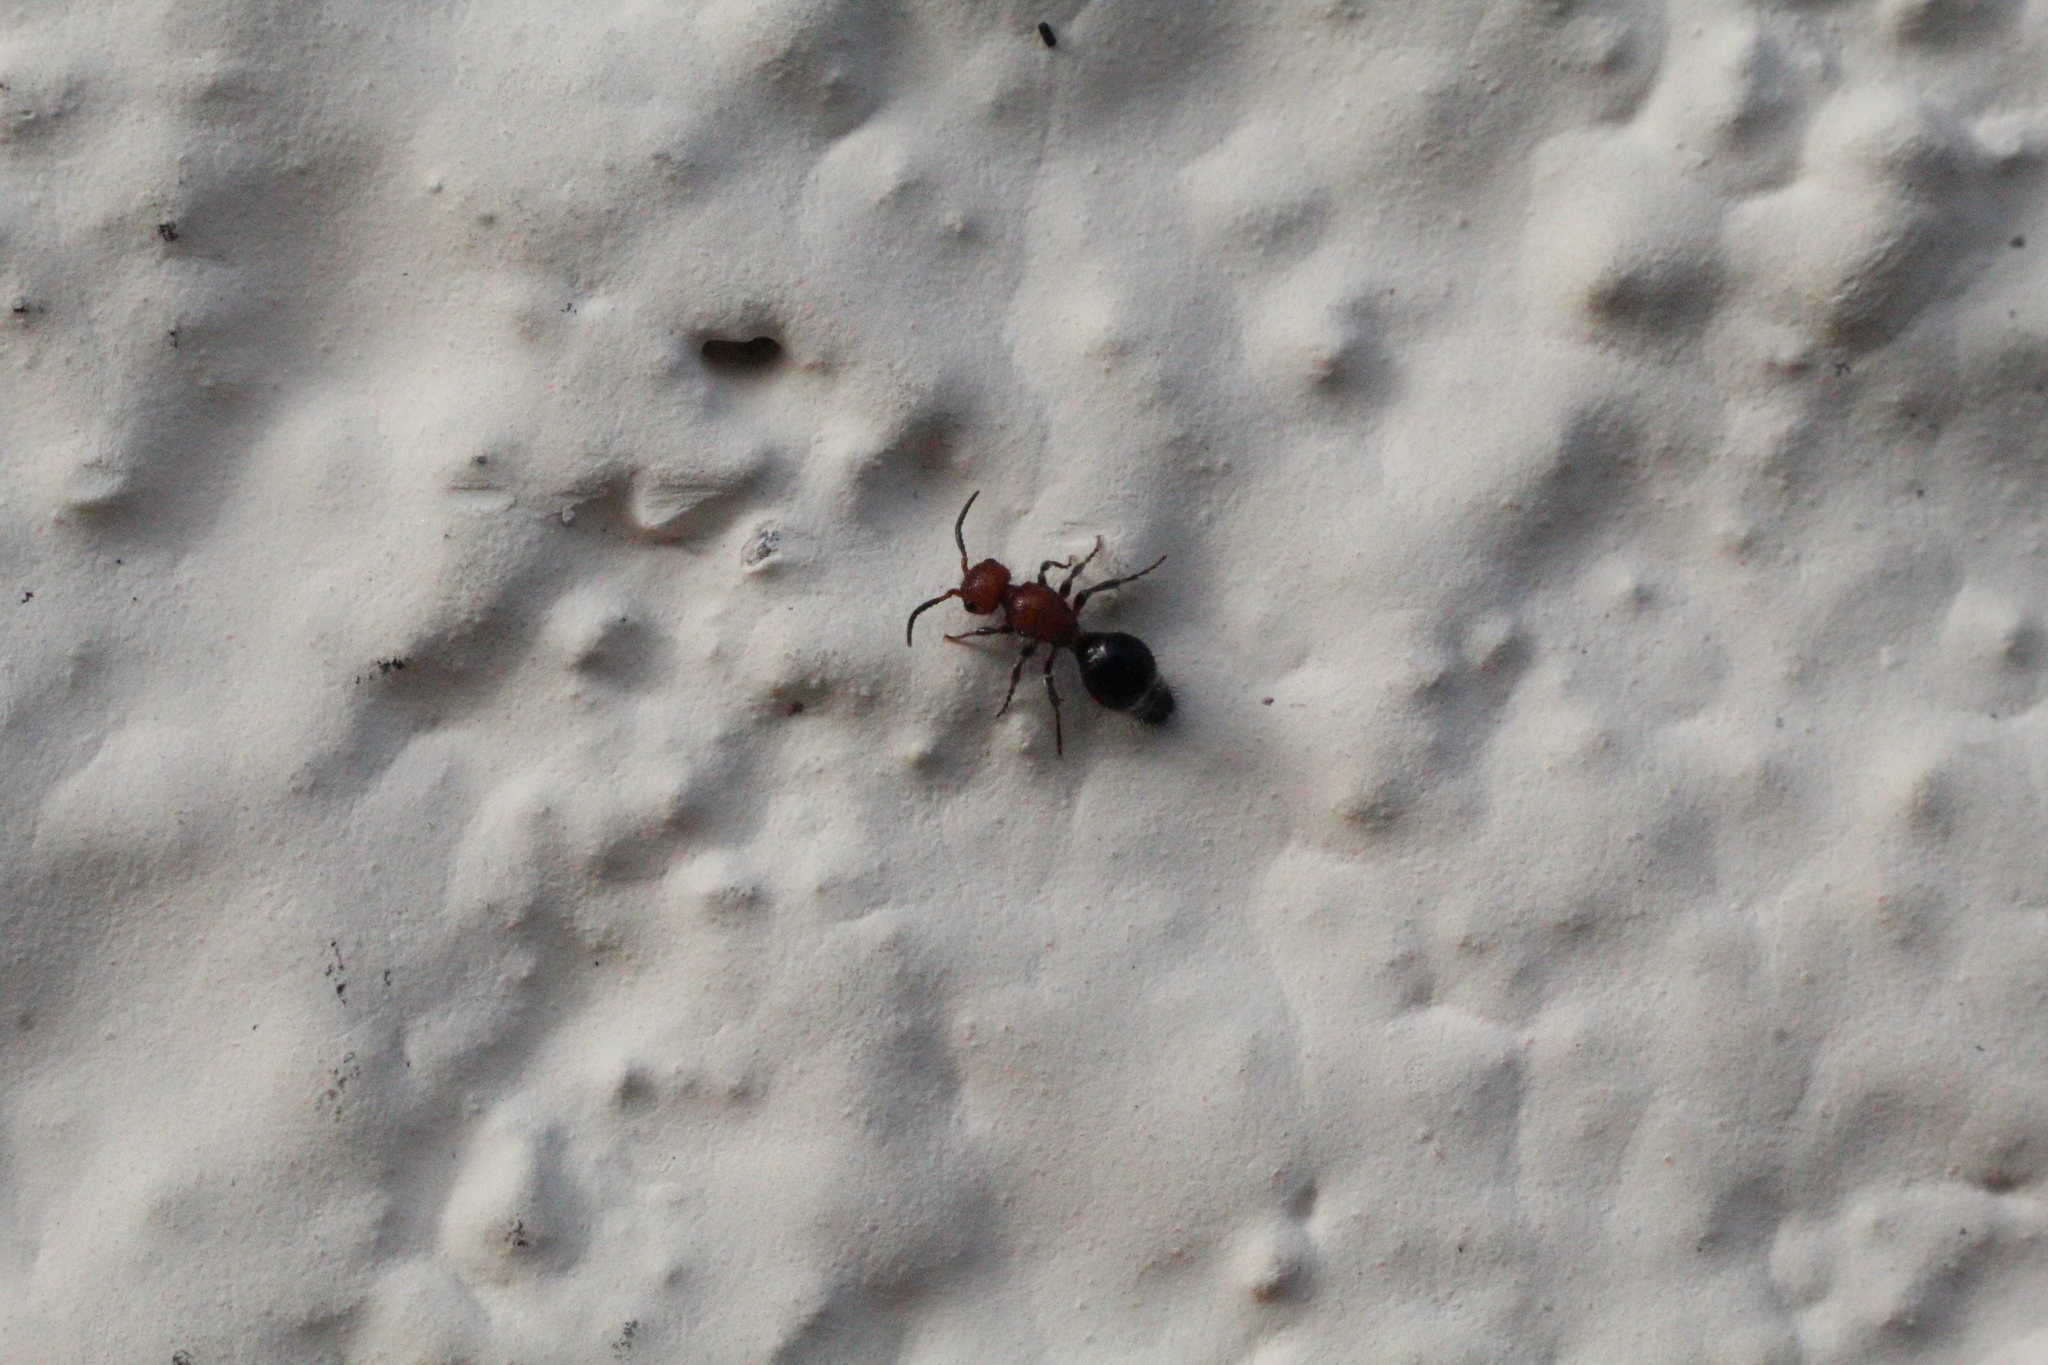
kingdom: Animalia
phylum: Arthropoda
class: Insecta
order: Hymenoptera
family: Mutillidae
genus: Cystomutilla
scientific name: Cystomutilla ruficeps
